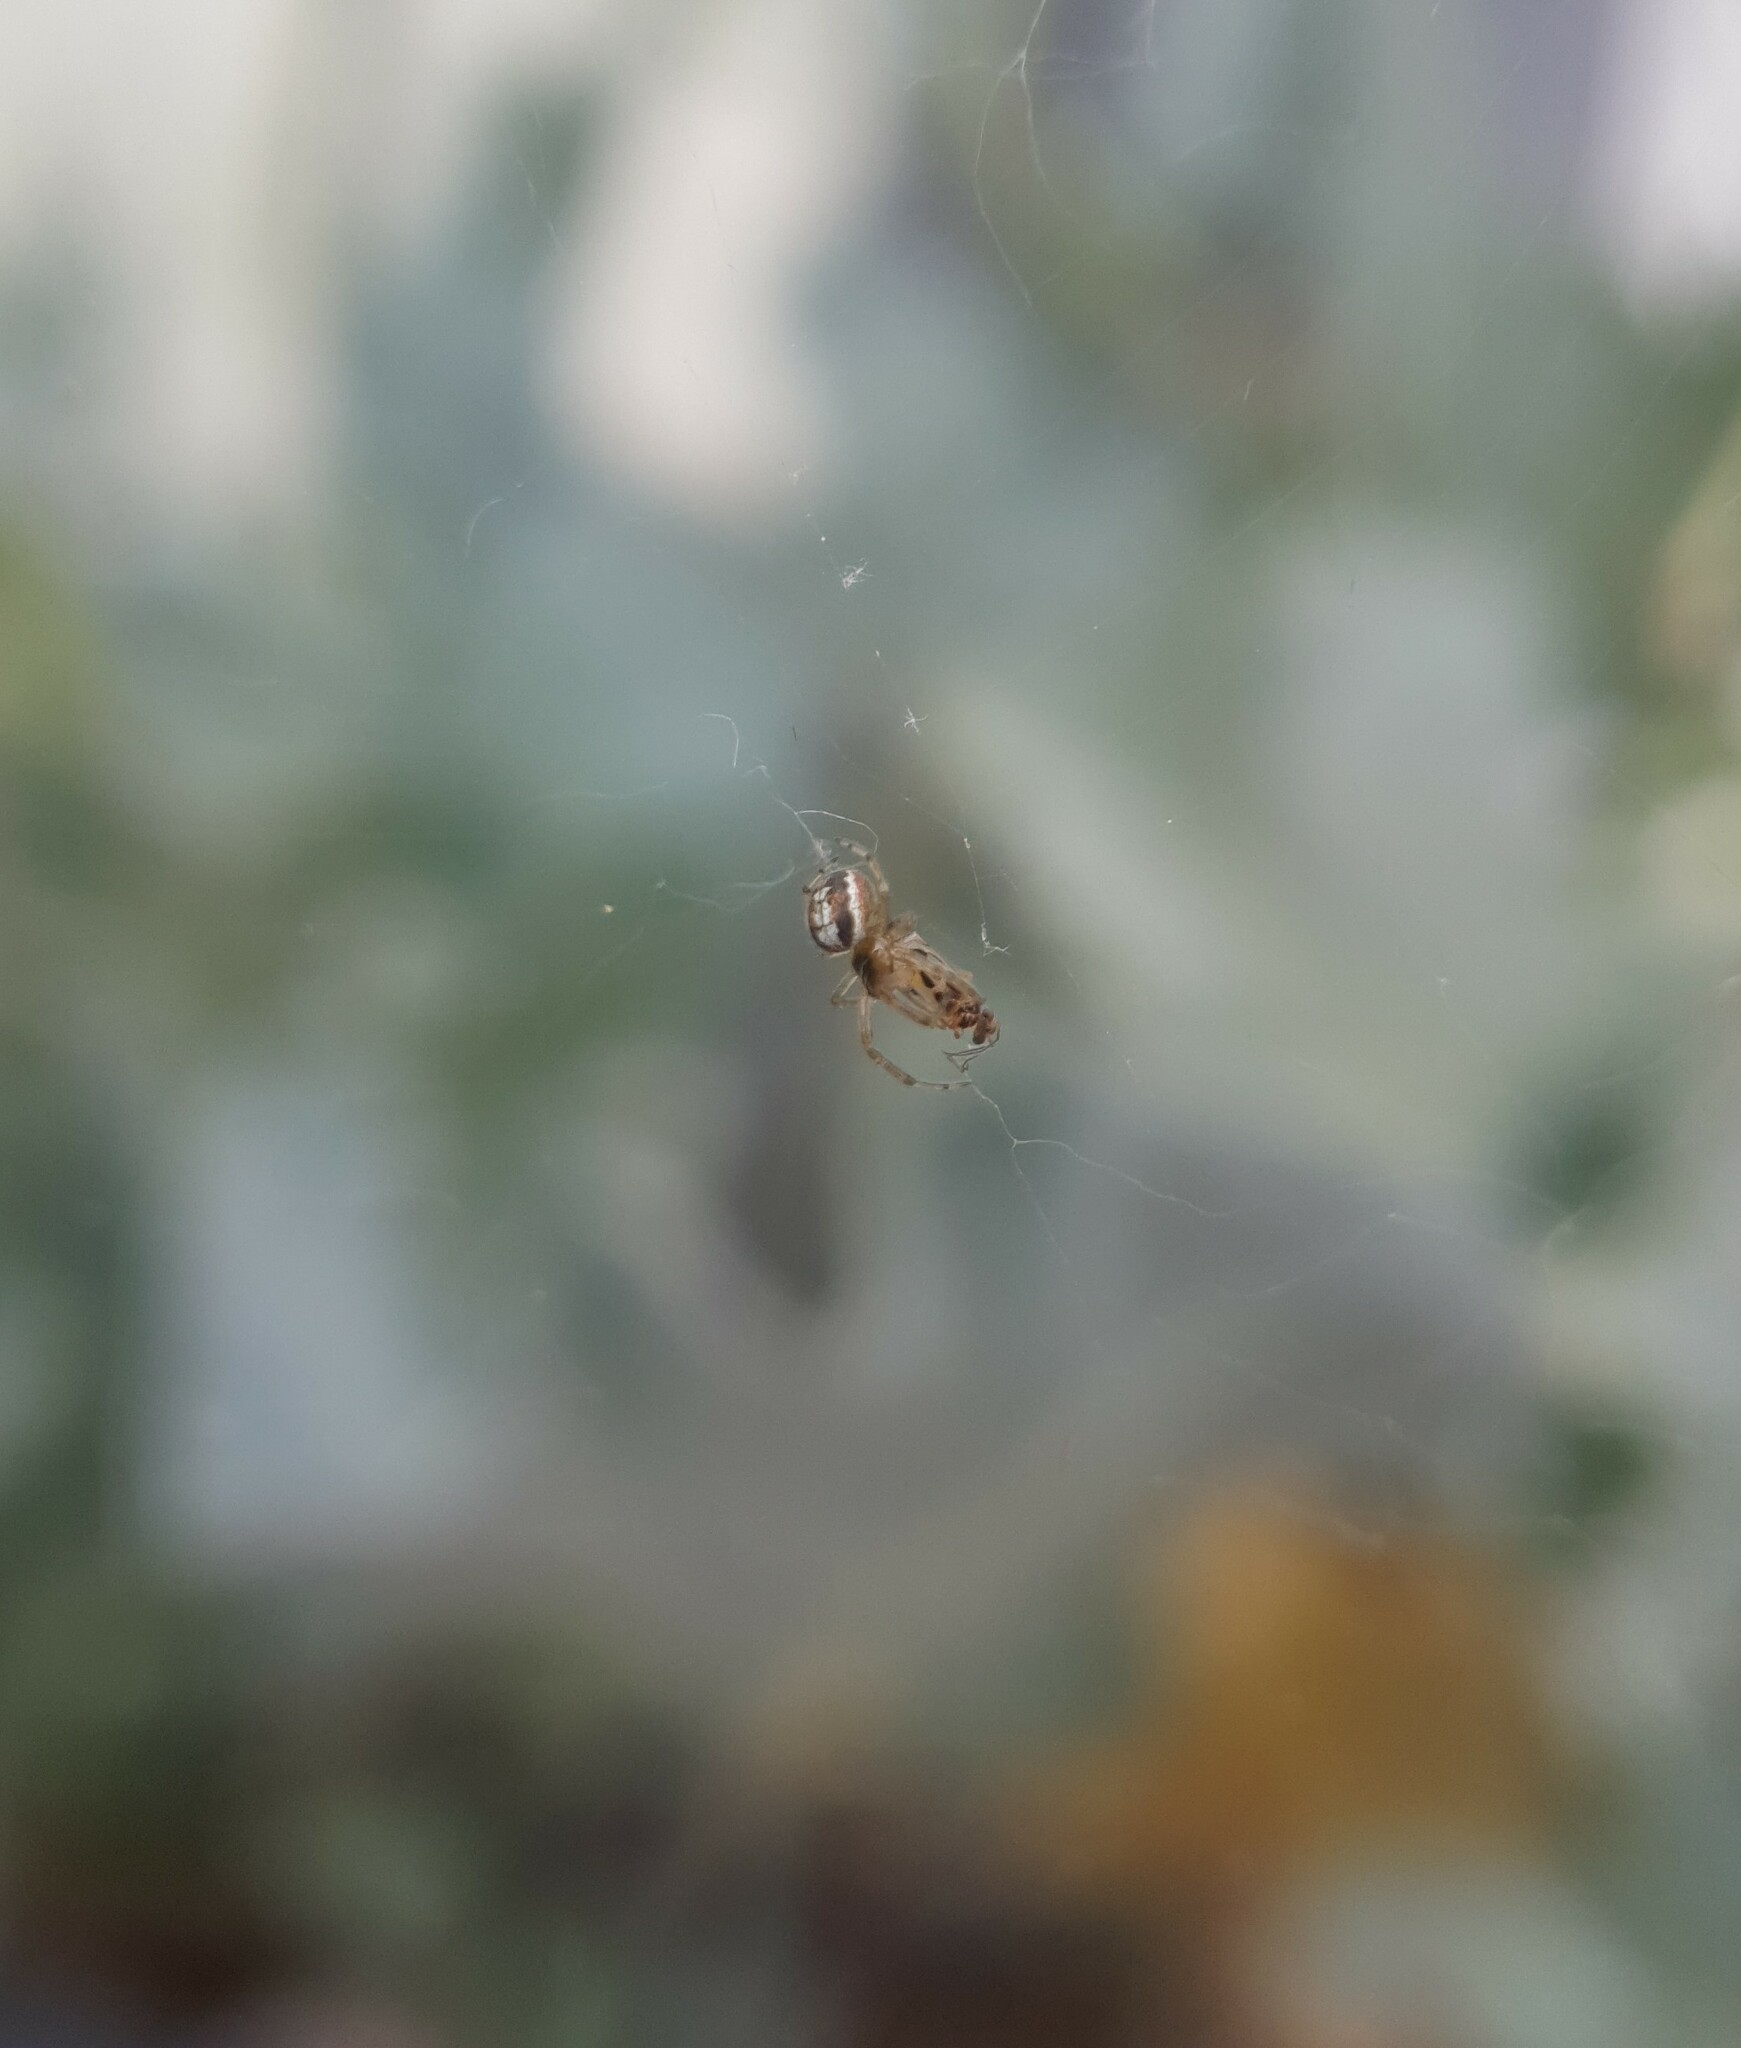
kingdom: Animalia
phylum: Arthropoda
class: Insecta
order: Psocodea
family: Stenopsocidae
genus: Graphopsocus
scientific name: Graphopsocus cruciatus
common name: Lizard bark louse
